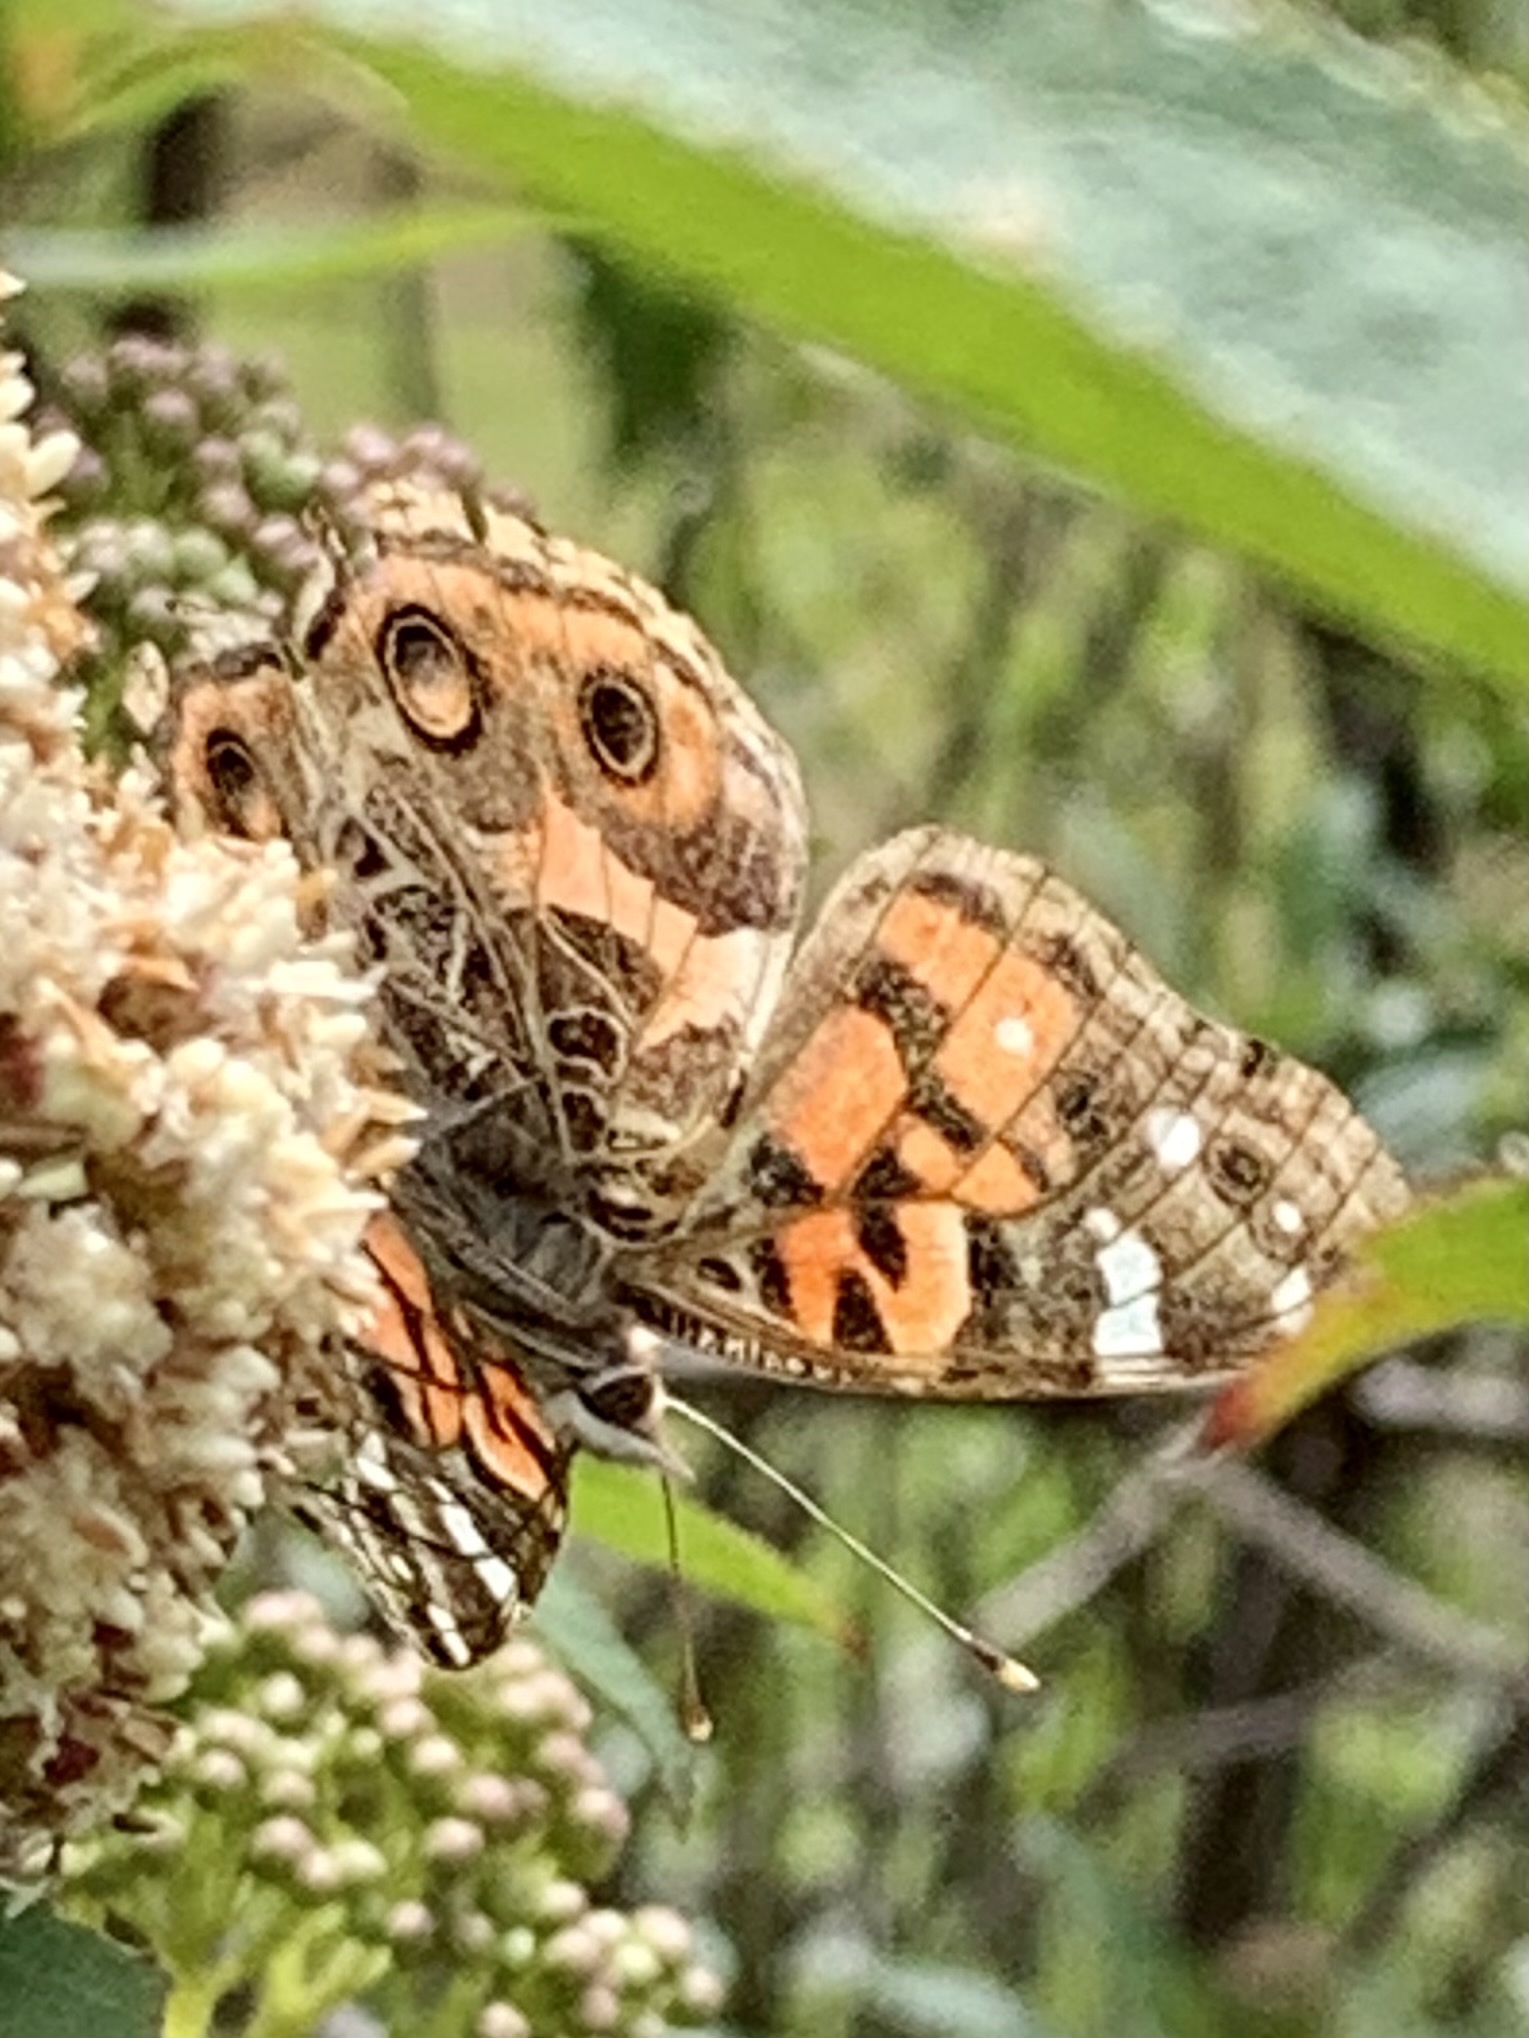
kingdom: Animalia
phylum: Arthropoda
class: Insecta
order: Lepidoptera
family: Nymphalidae
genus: Vanessa
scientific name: Vanessa braziliensis
